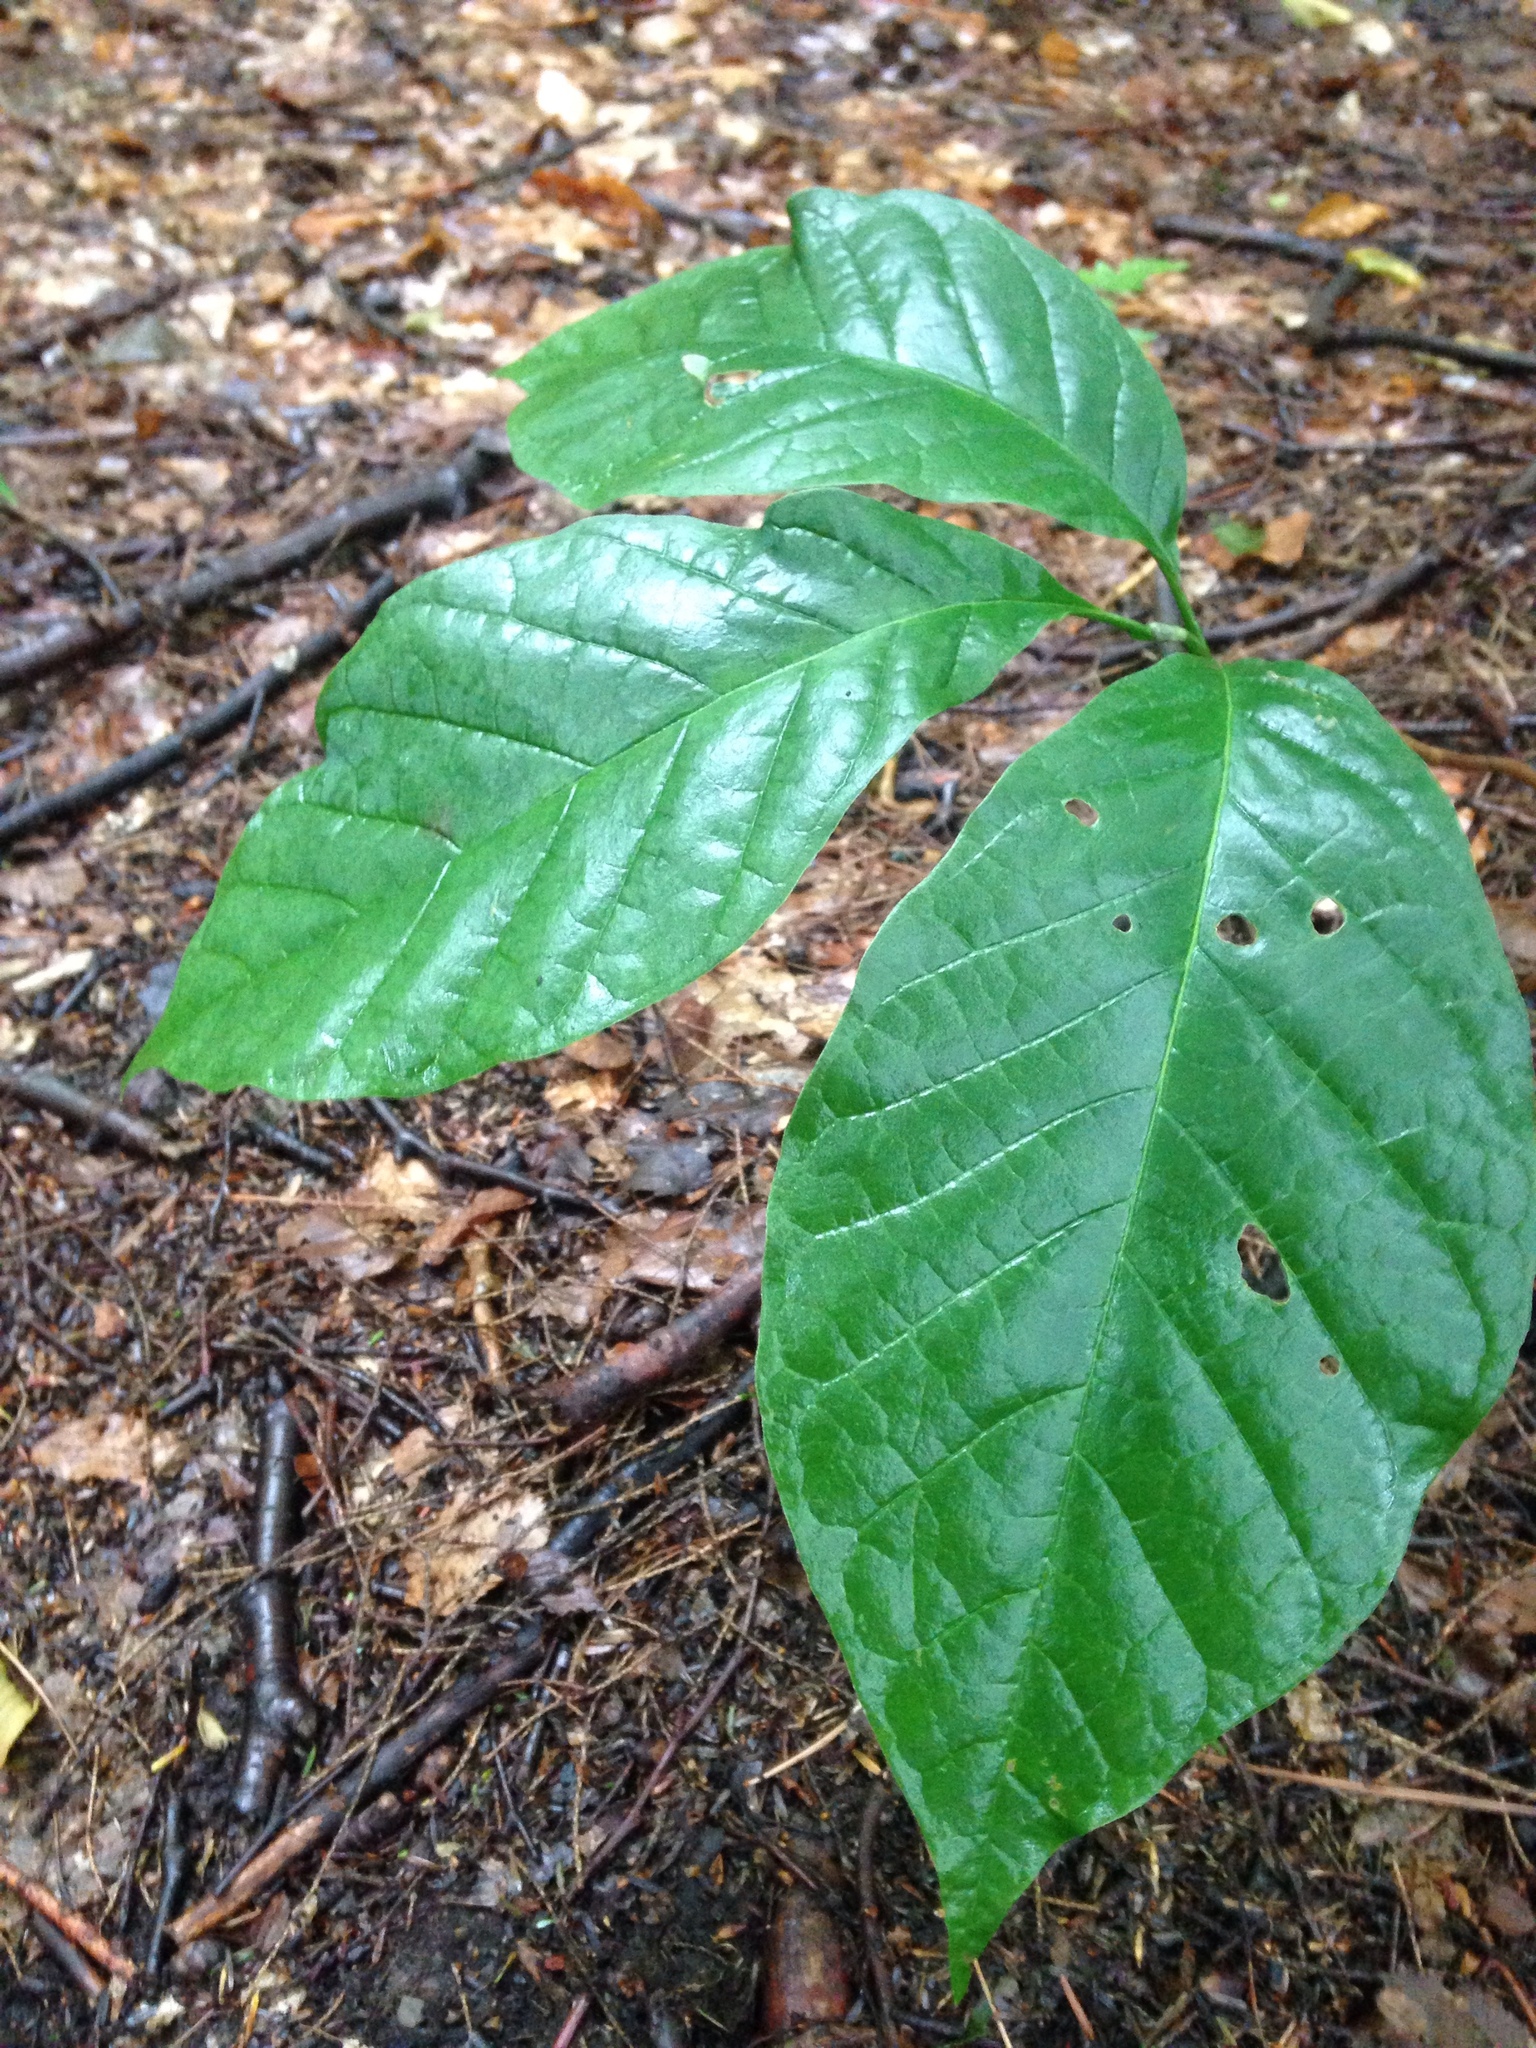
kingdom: Plantae
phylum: Tracheophyta
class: Magnoliopsida
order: Magnoliales
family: Magnoliaceae
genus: Magnolia
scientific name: Magnolia acuminata
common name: Cucumber magnolia
